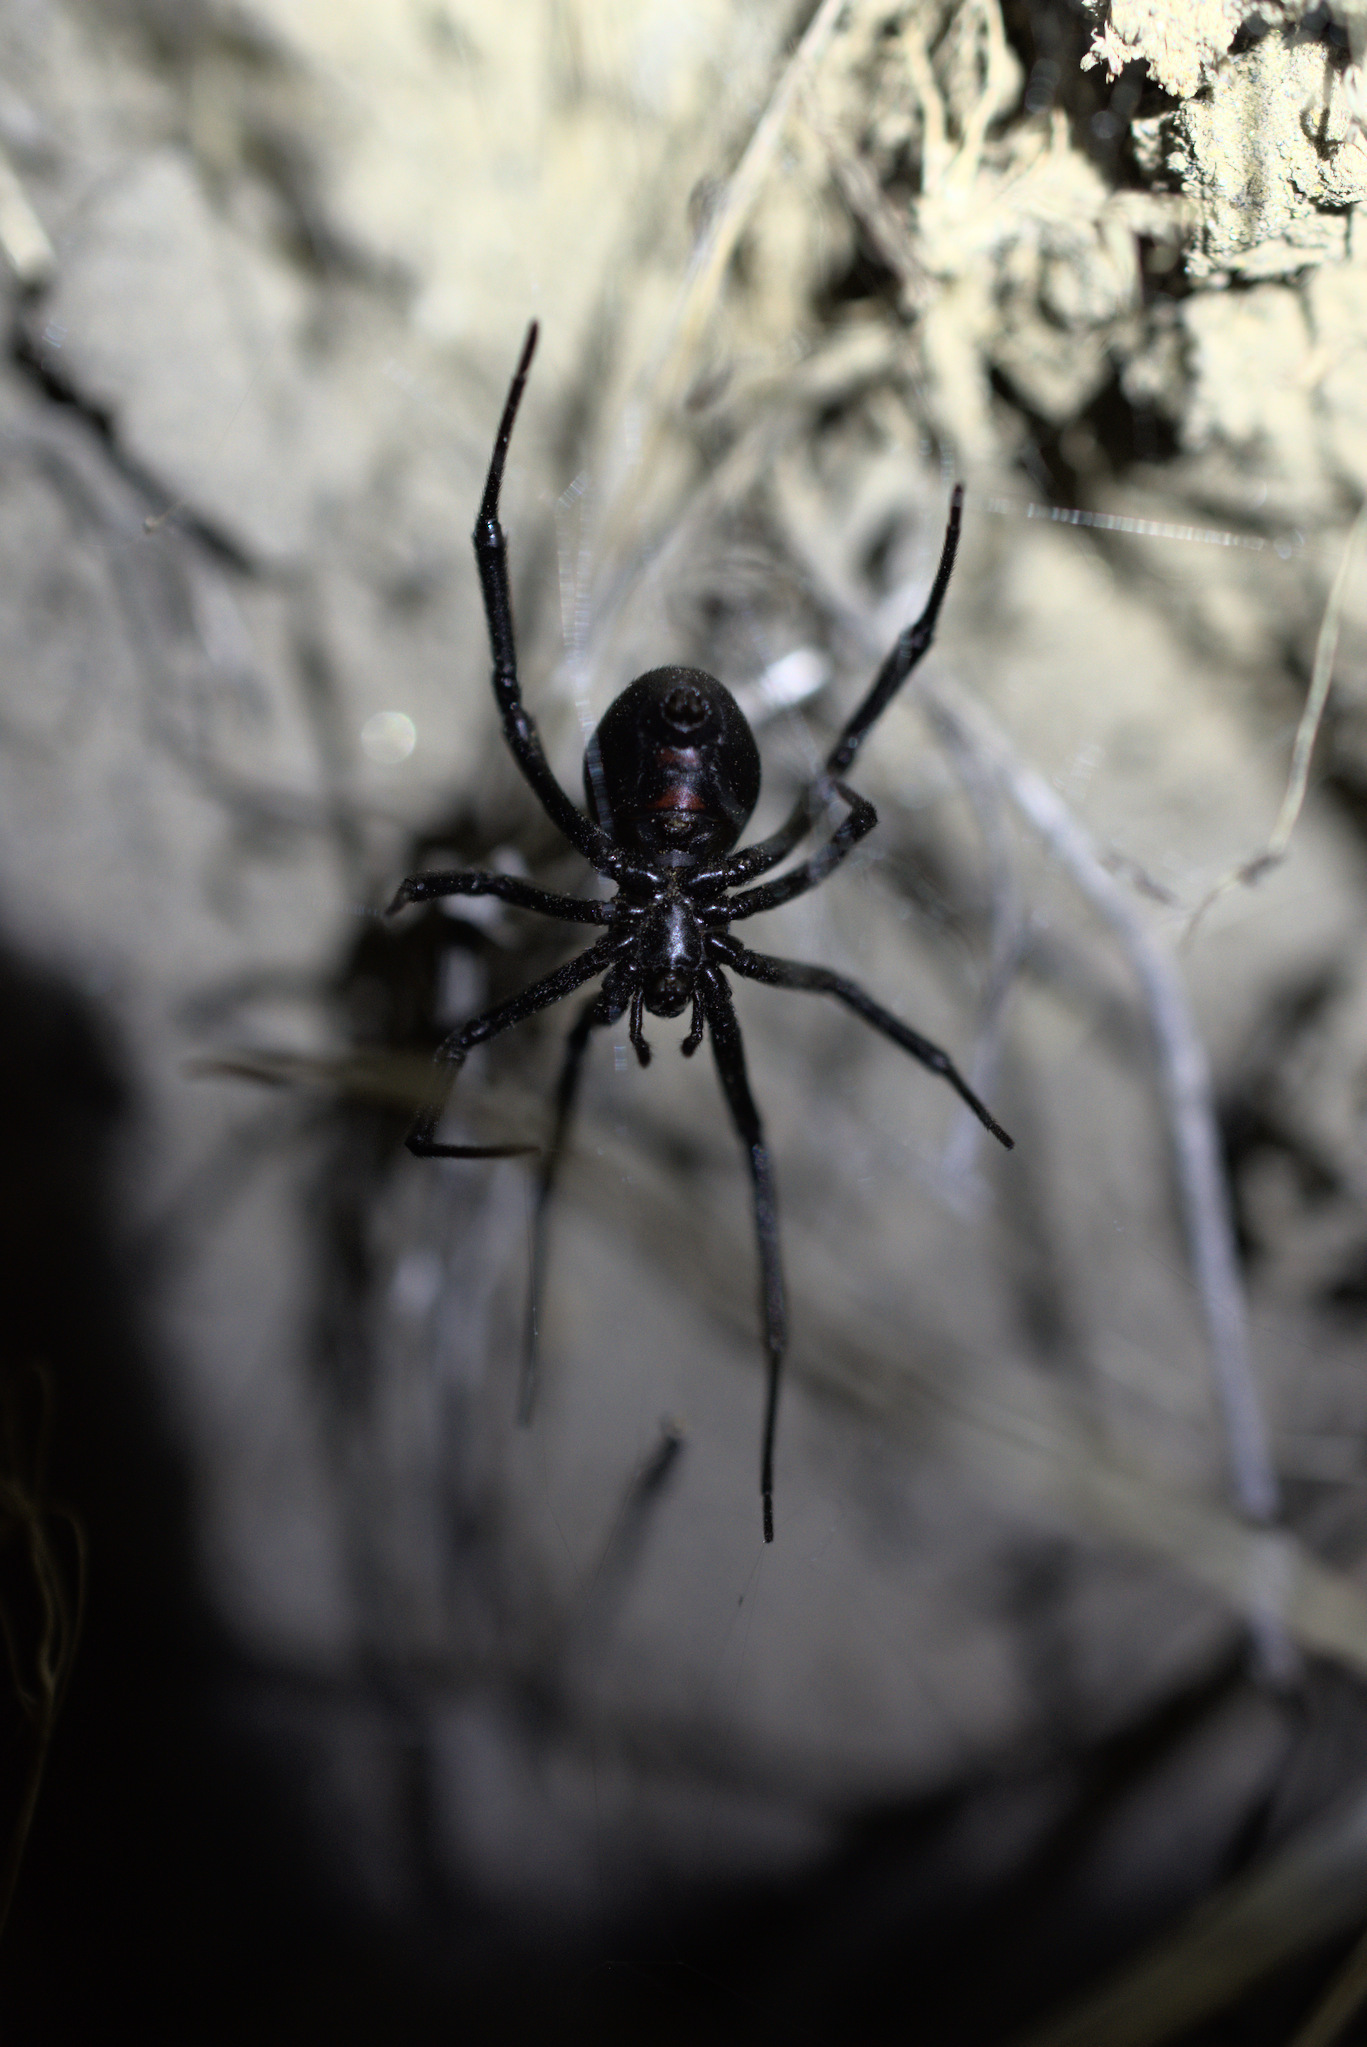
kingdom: Animalia
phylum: Arthropoda
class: Arachnida
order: Araneae
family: Theridiidae
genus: Latrodectus
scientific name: Latrodectus hesperus
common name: Western black widow
